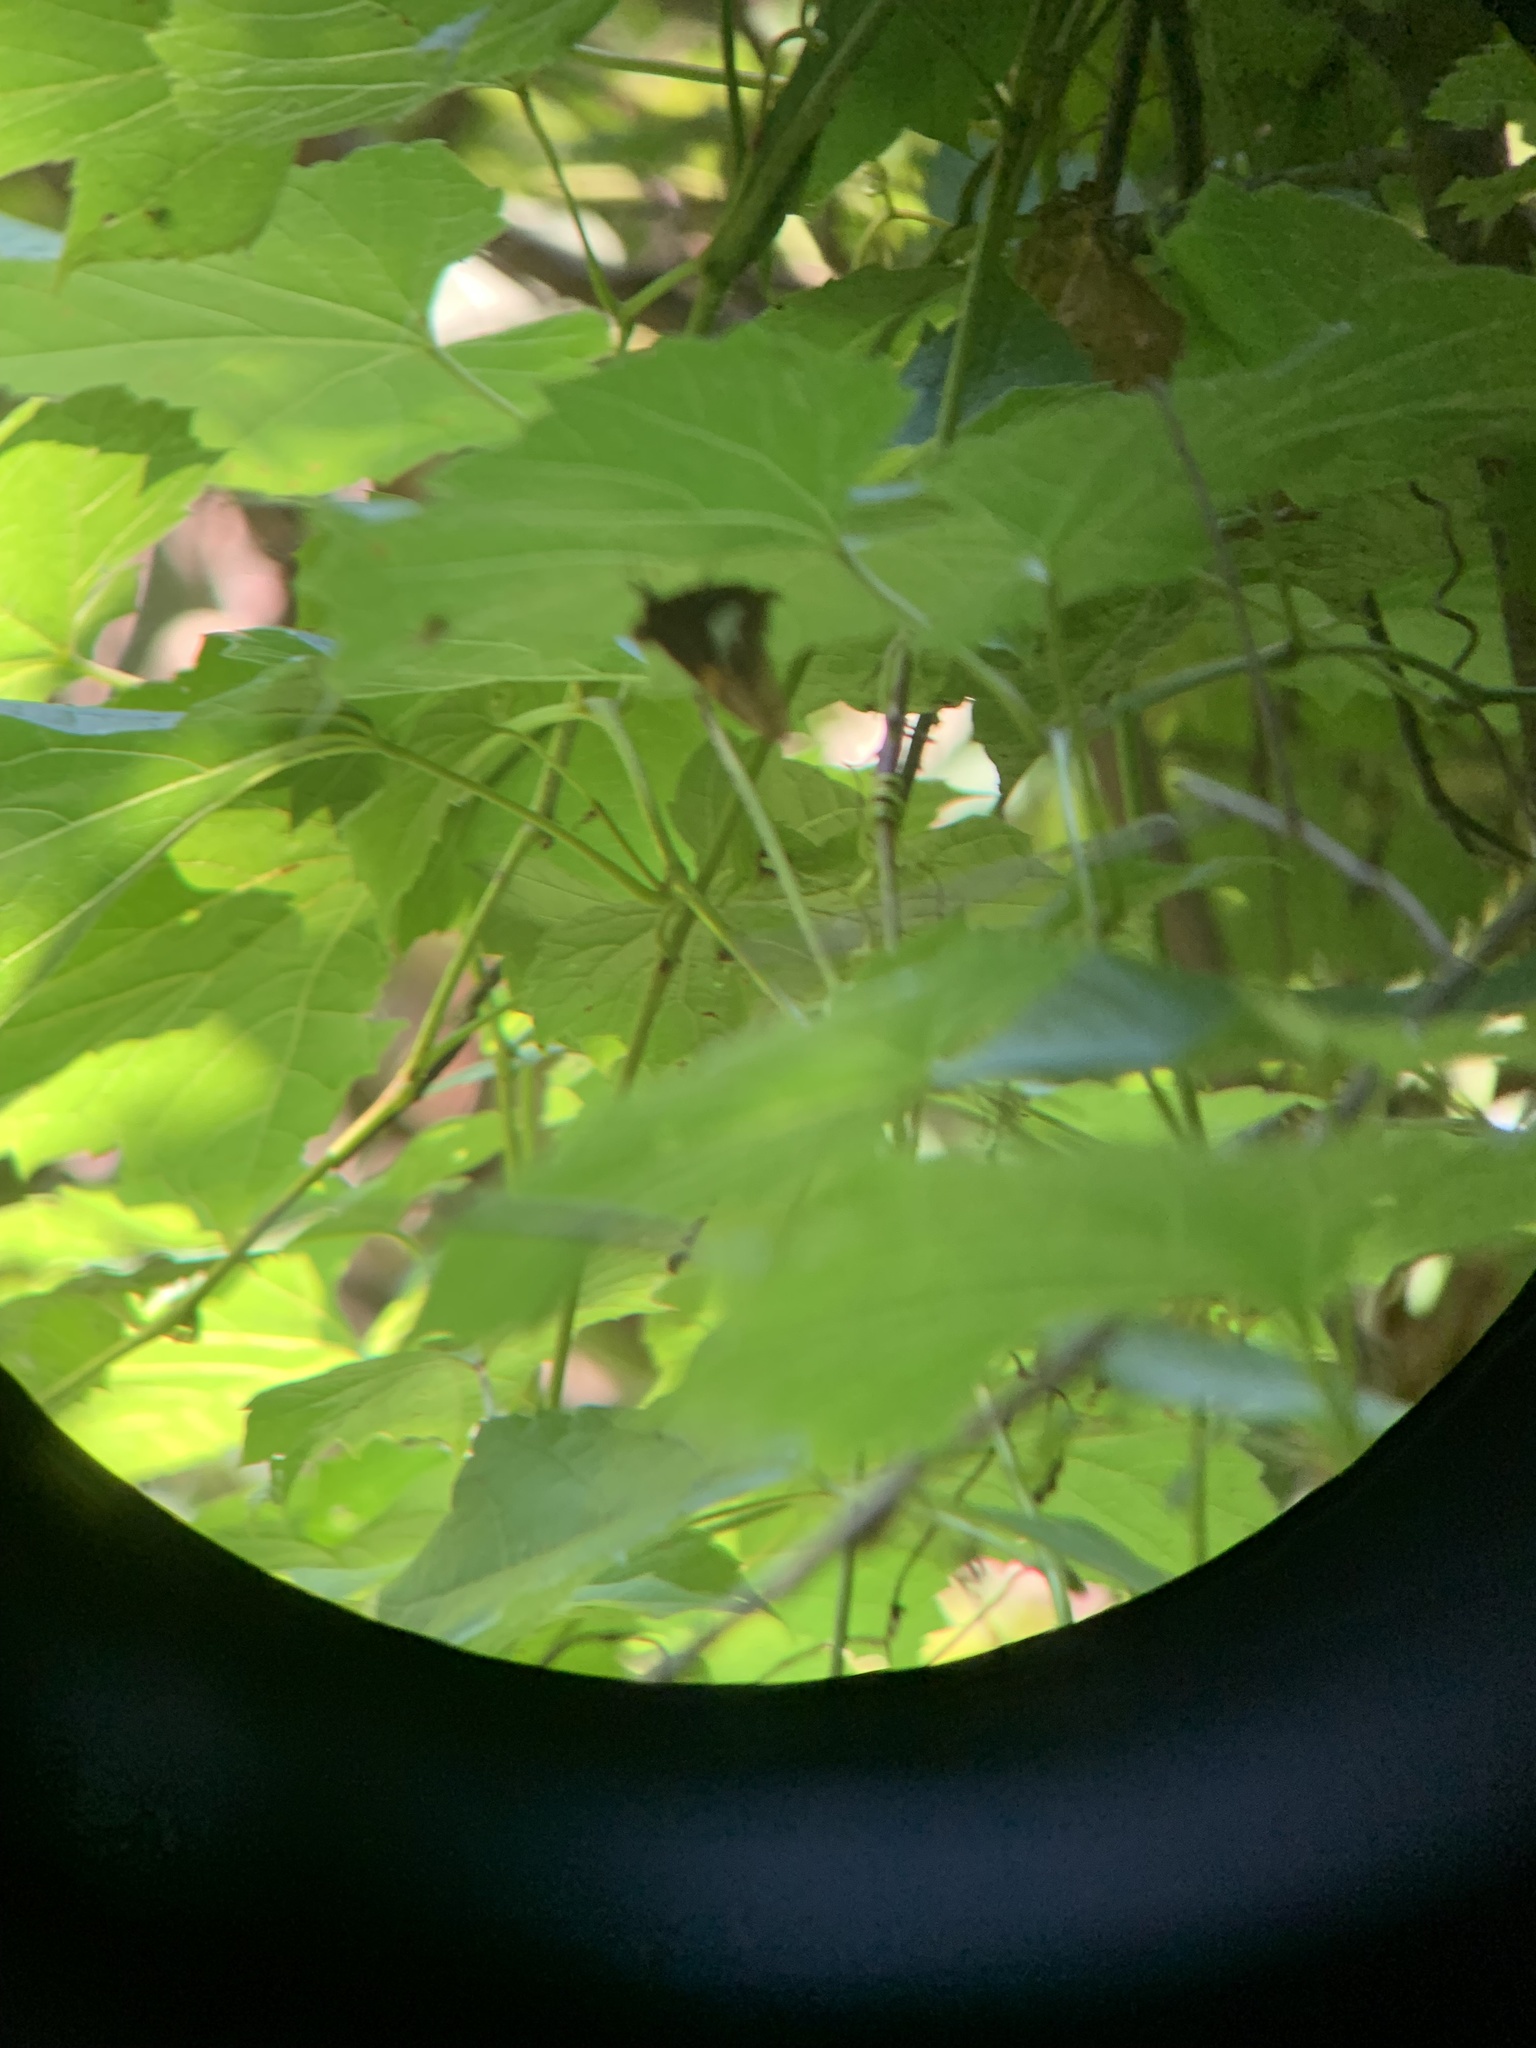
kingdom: Animalia
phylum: Arthropoda
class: Insecta
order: Lepidoptera
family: Hesperiidae
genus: Epargyreus
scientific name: Epargyreus clarus
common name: Silver-spotted skipper
